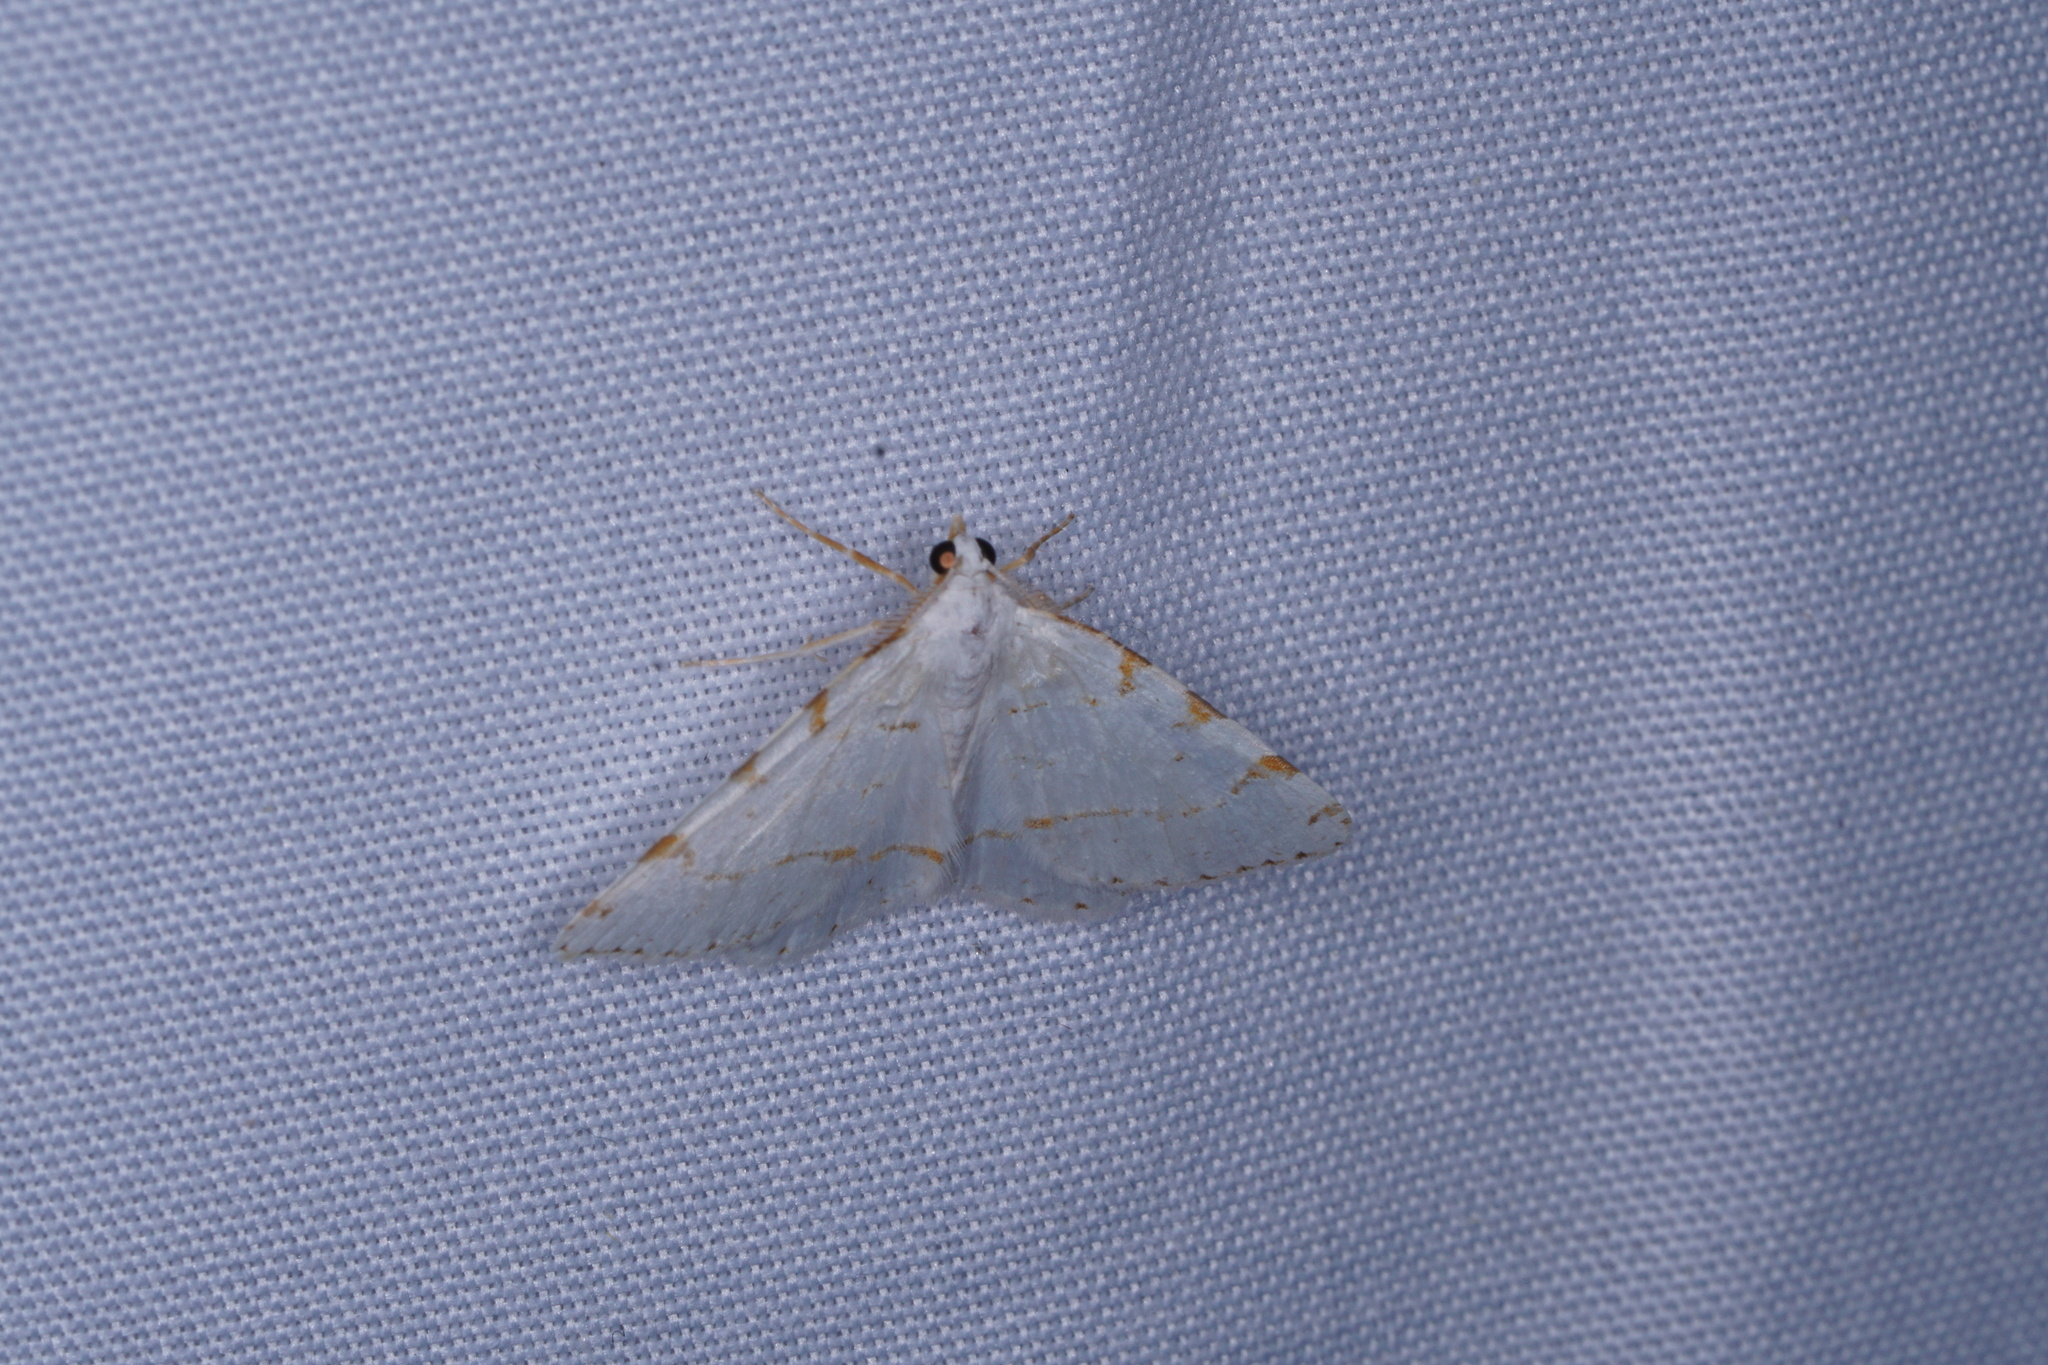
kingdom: Animalia
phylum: Arthropoda
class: Insecta
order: Lepidoptera
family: Geometridae
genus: Macaria
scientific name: Macaria pustularia
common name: Lesser maple spanworm moth
